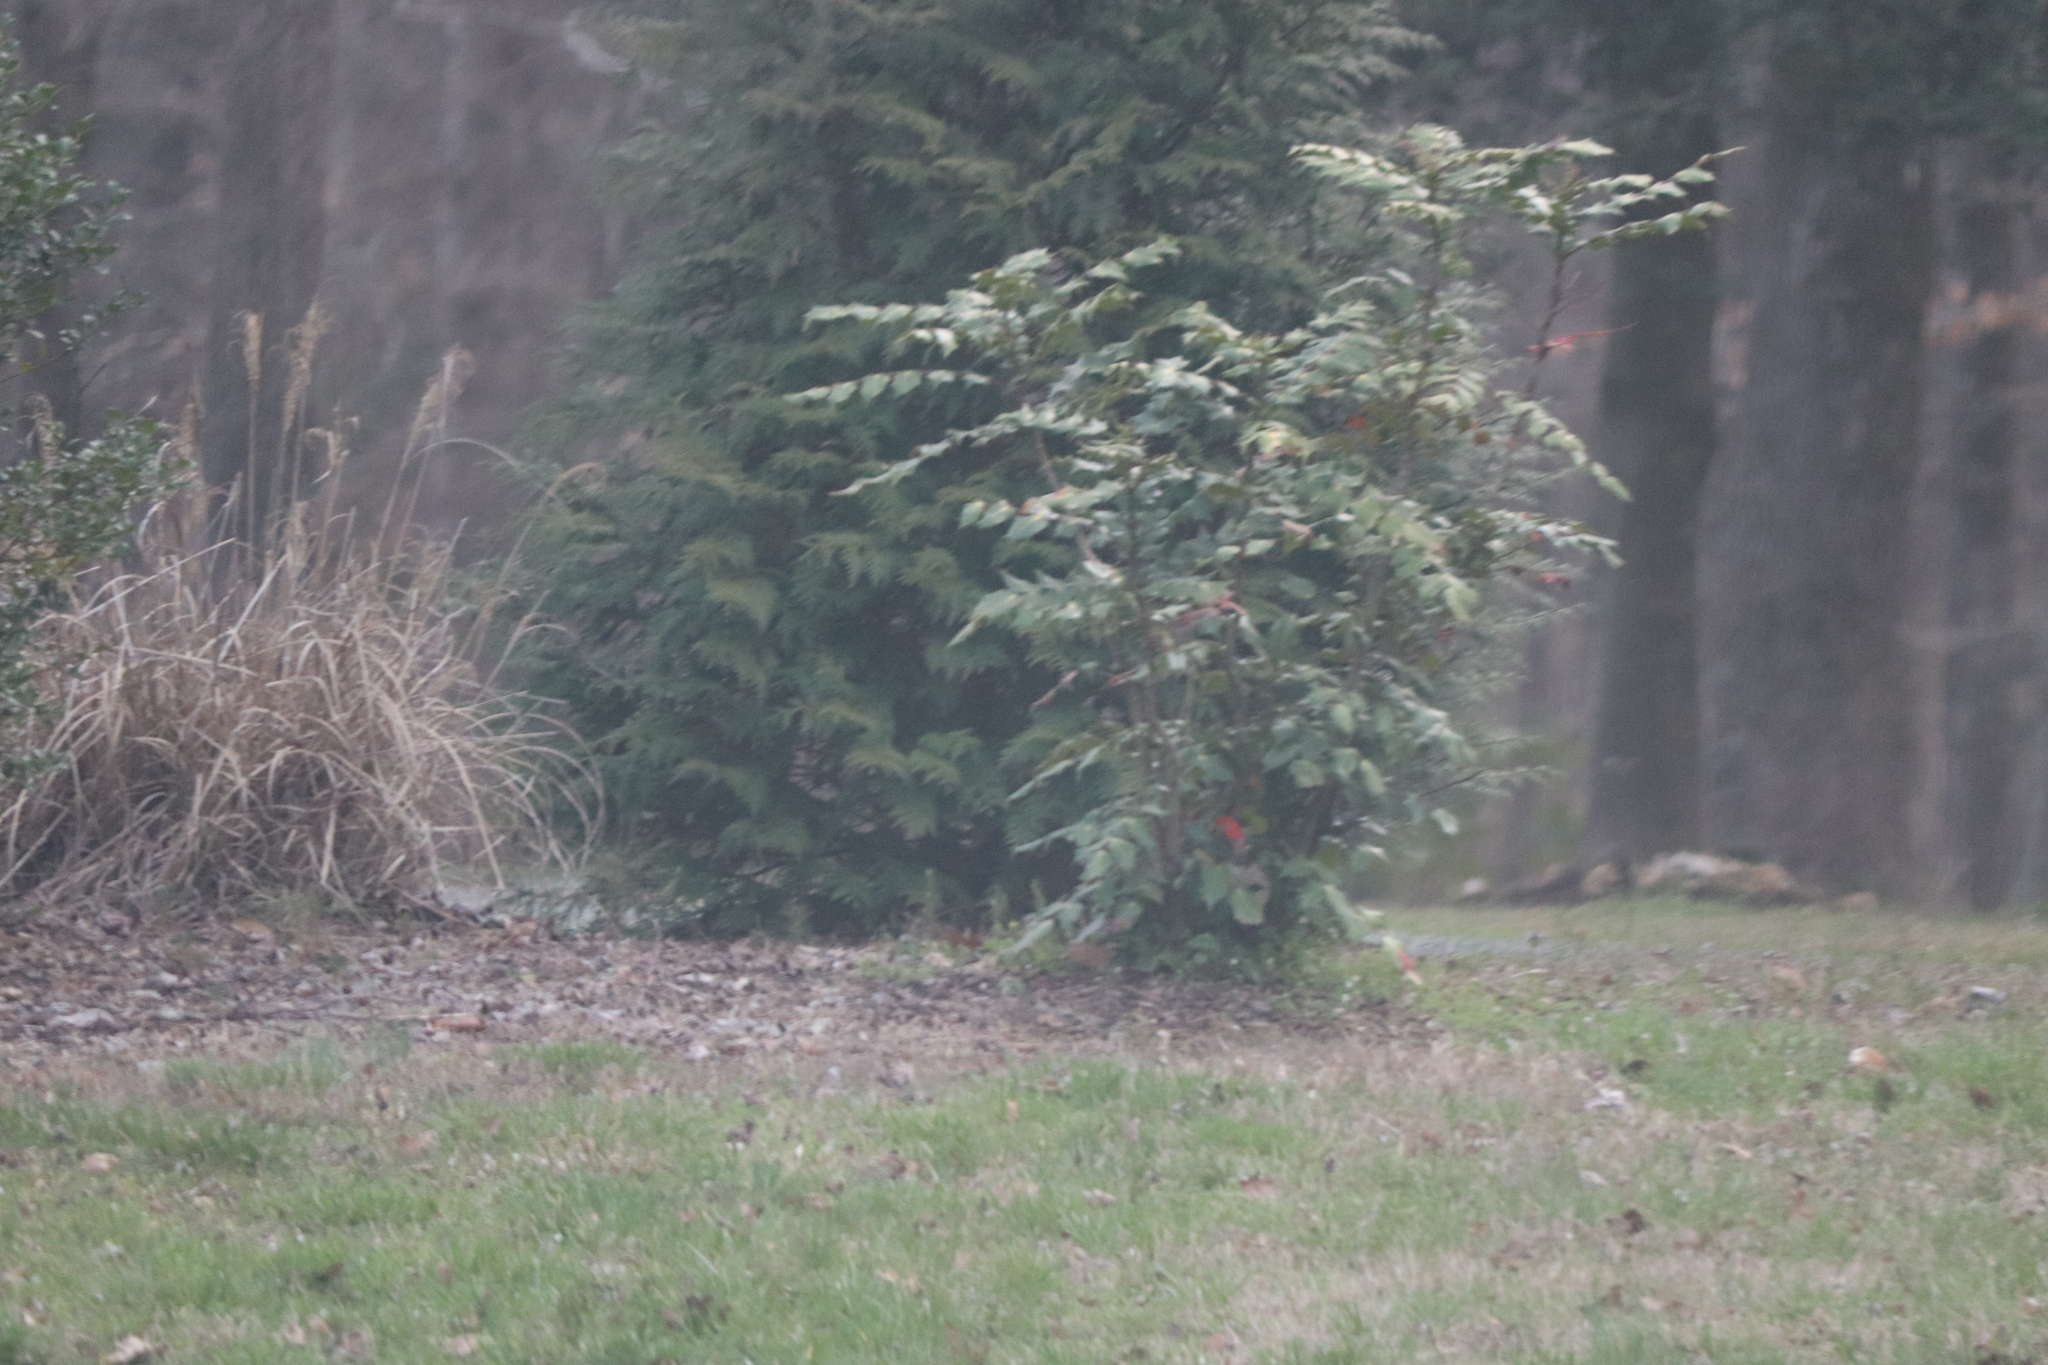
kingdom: Plantae
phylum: Tracheophyta
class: Magnoliopsida
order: Ranunculales
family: Berberidaceae
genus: Mahonia
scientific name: Mahonia bealei
